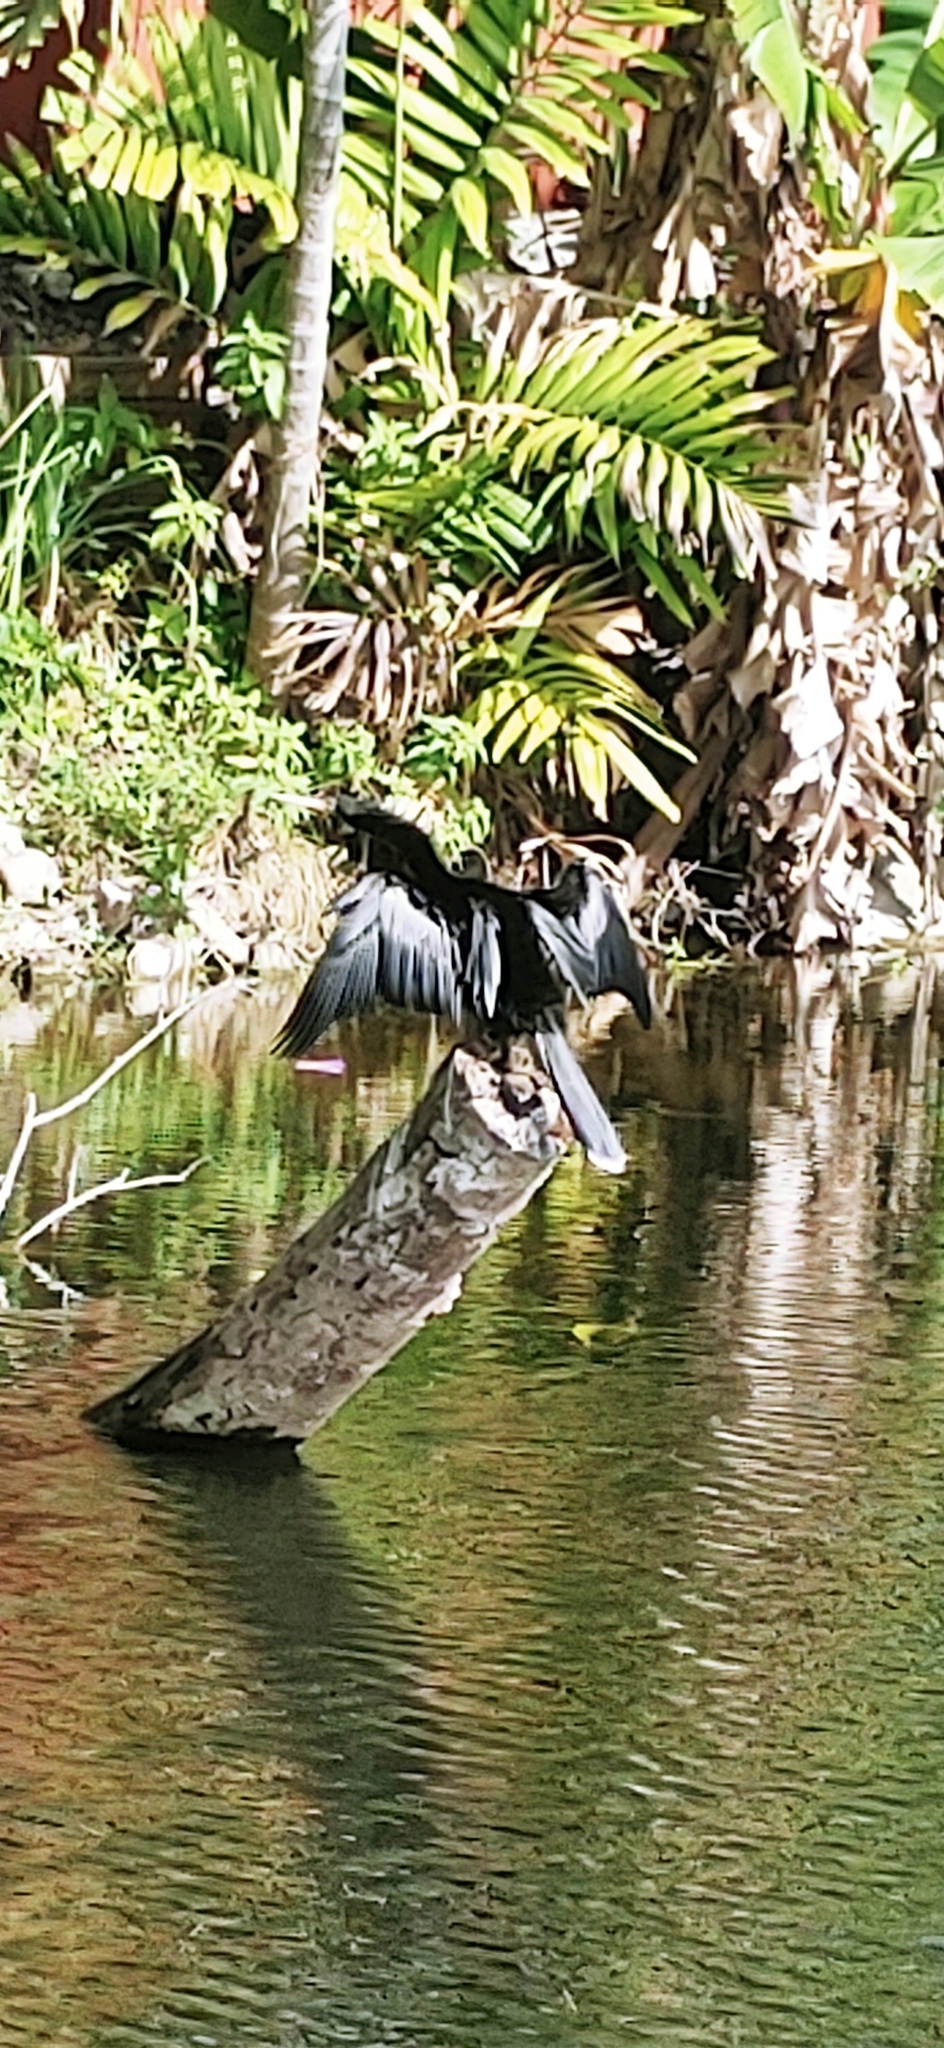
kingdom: Animalia
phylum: Chordata
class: Aves
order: Suliformes
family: Anhingidae
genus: Anhinga
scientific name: Anhinga anhinga
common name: Anhinga
